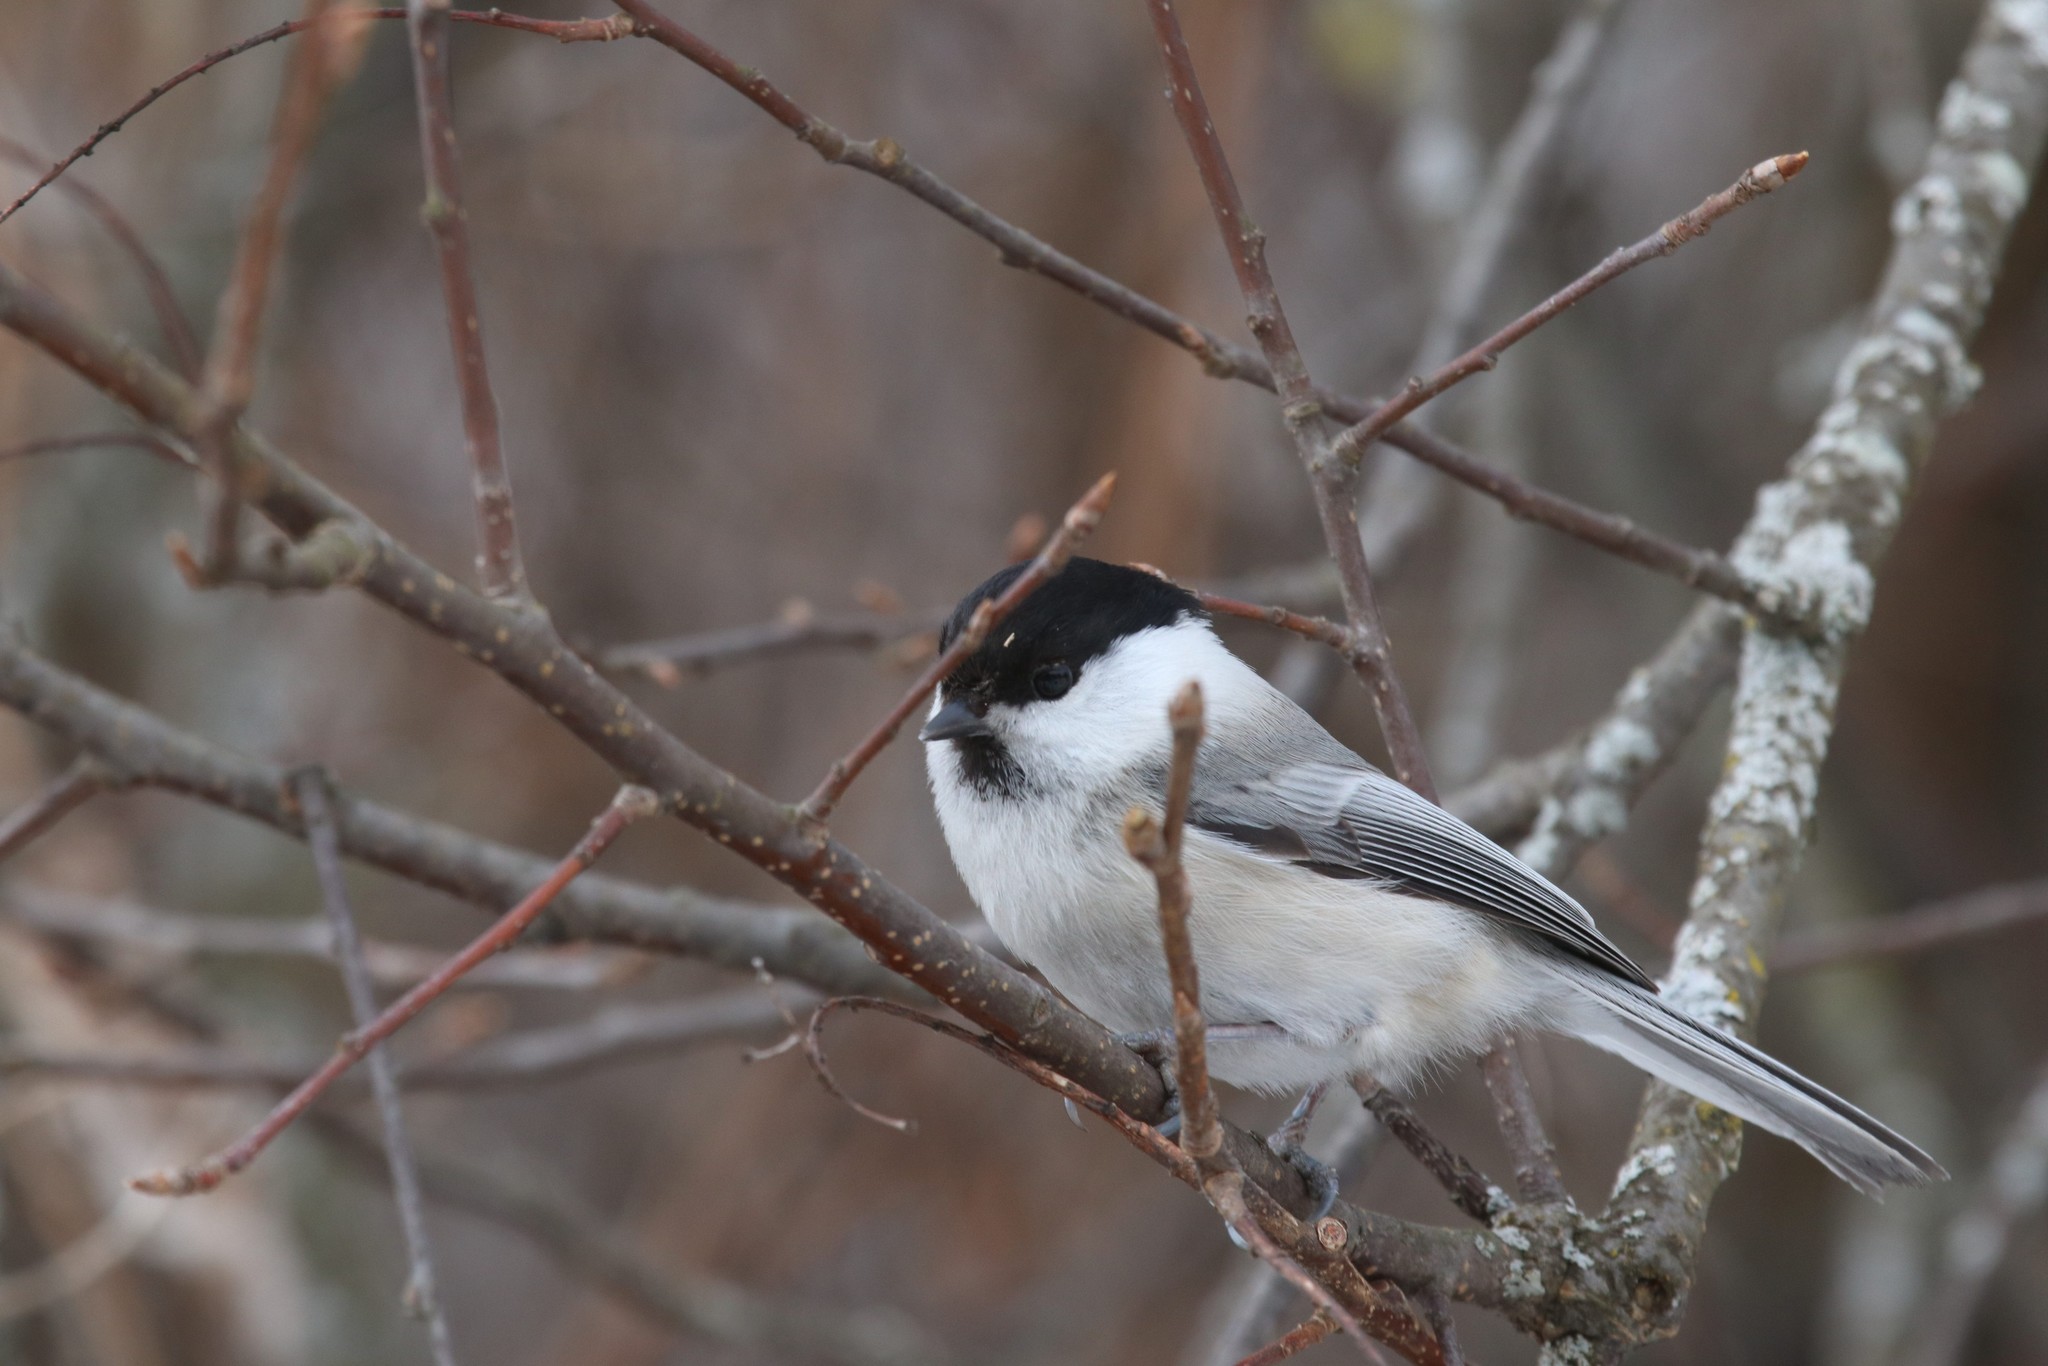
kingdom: Animalia
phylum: Chordata
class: Aves
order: Passeriformes
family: Paridae
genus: Poecile
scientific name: Poecile montanus
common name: Willow tit
